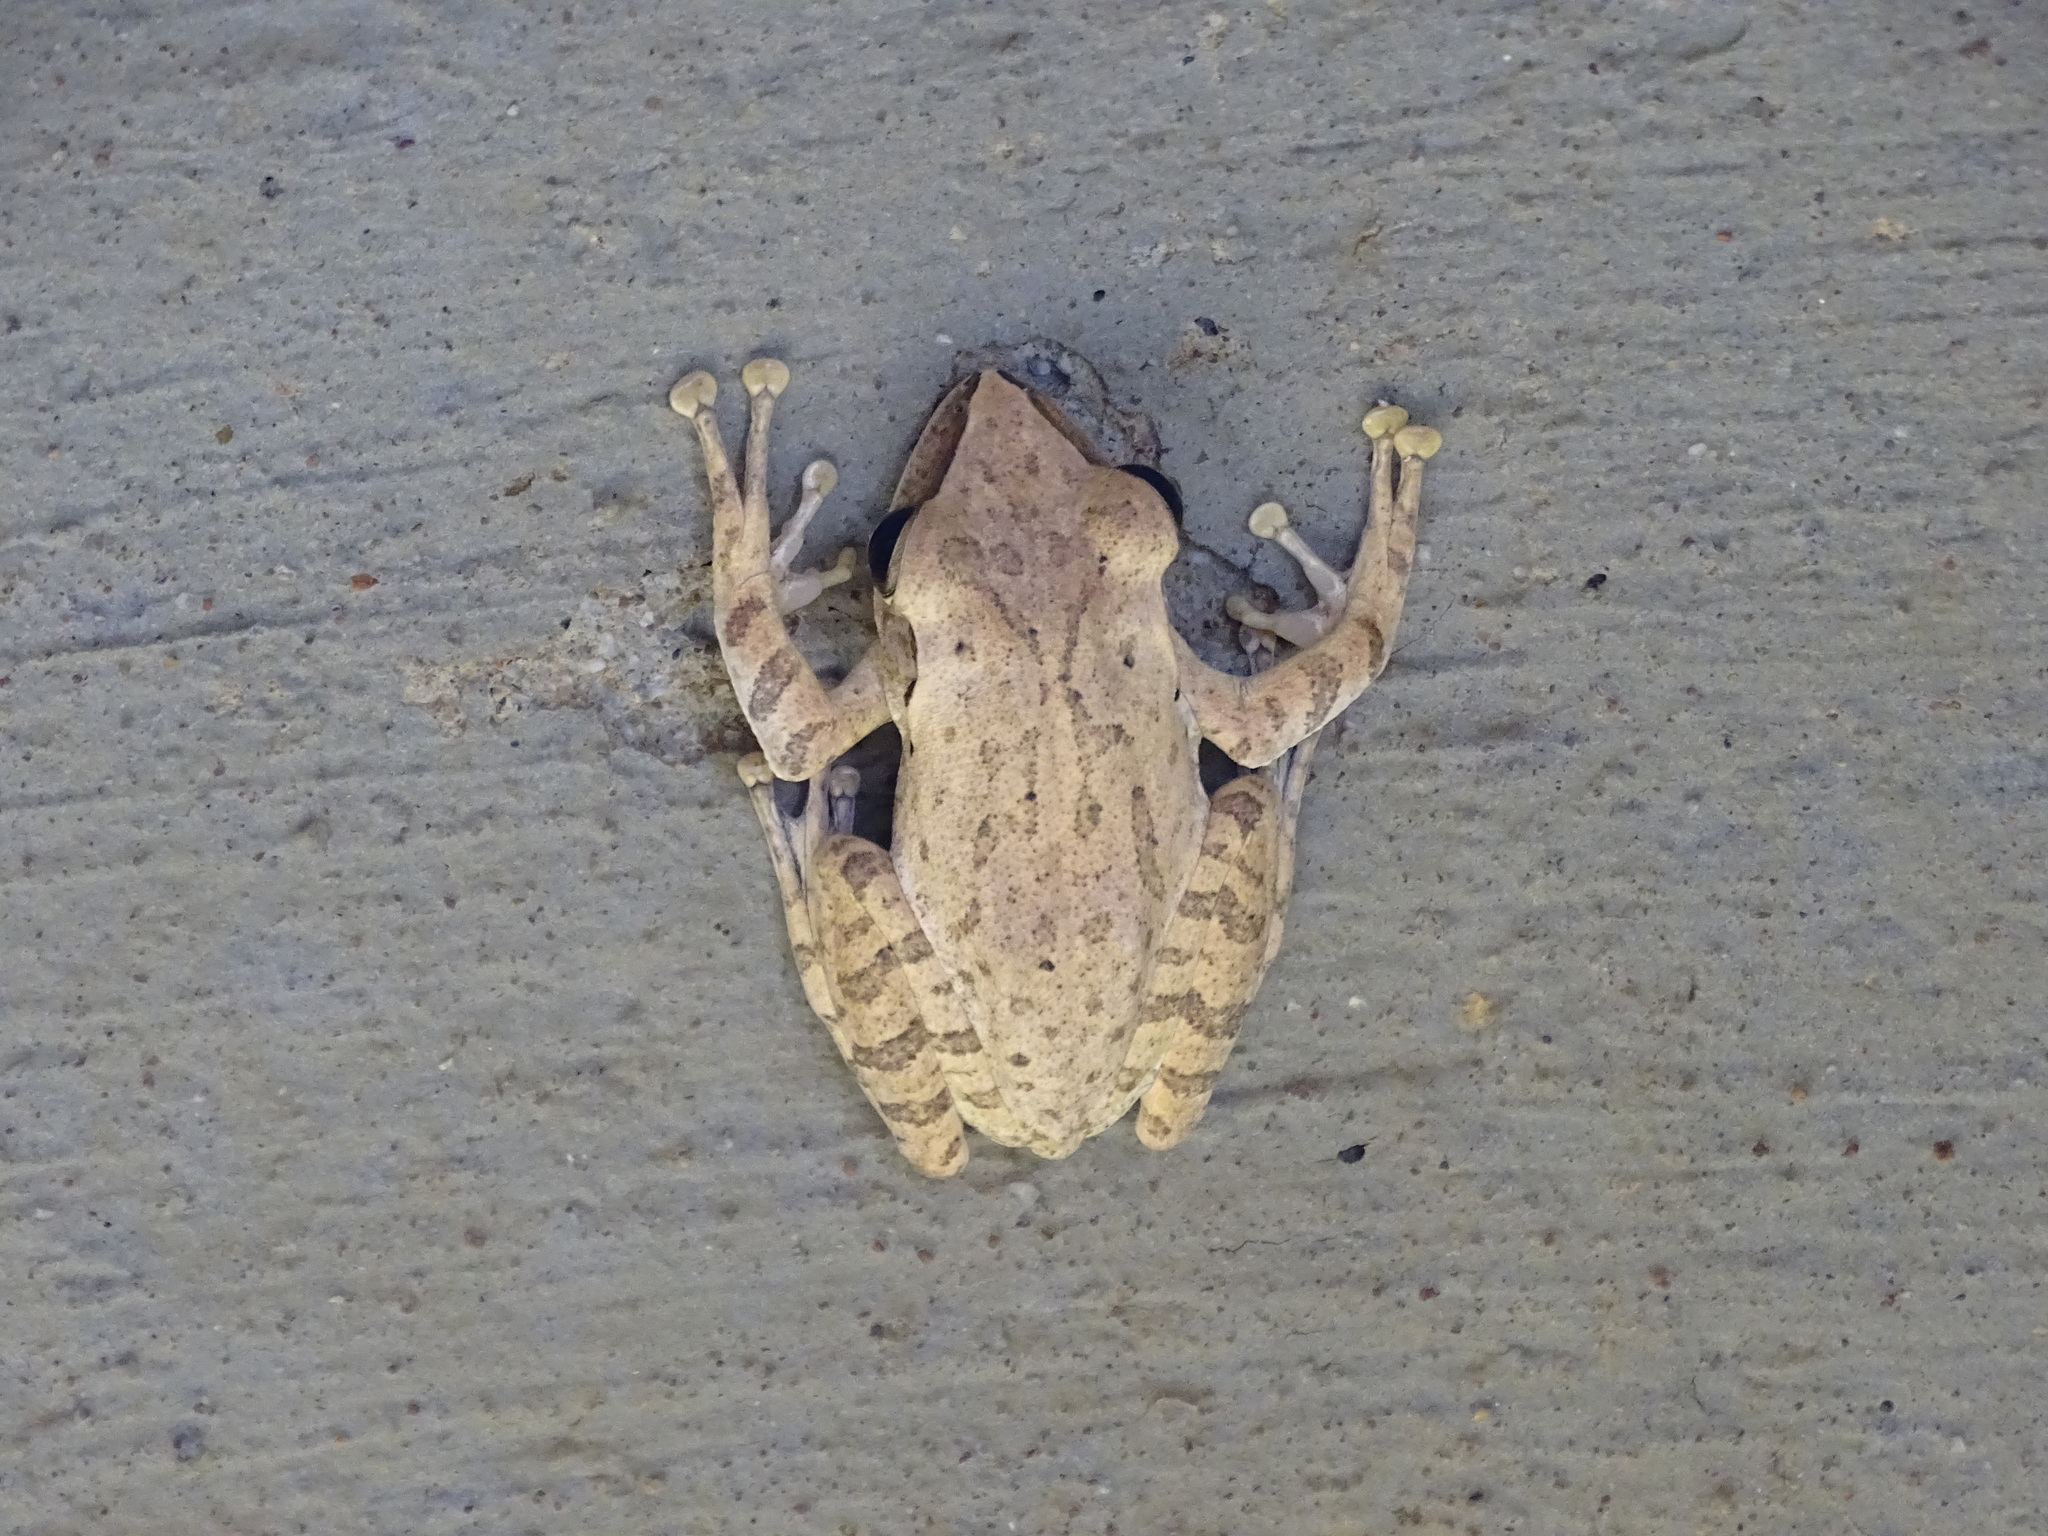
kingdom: Animalia
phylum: Chordata
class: Amphibia
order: Anura
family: Rhacophoridae
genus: Polypedates
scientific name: Polypedates megacephalus
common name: Hong kong whipping frog
